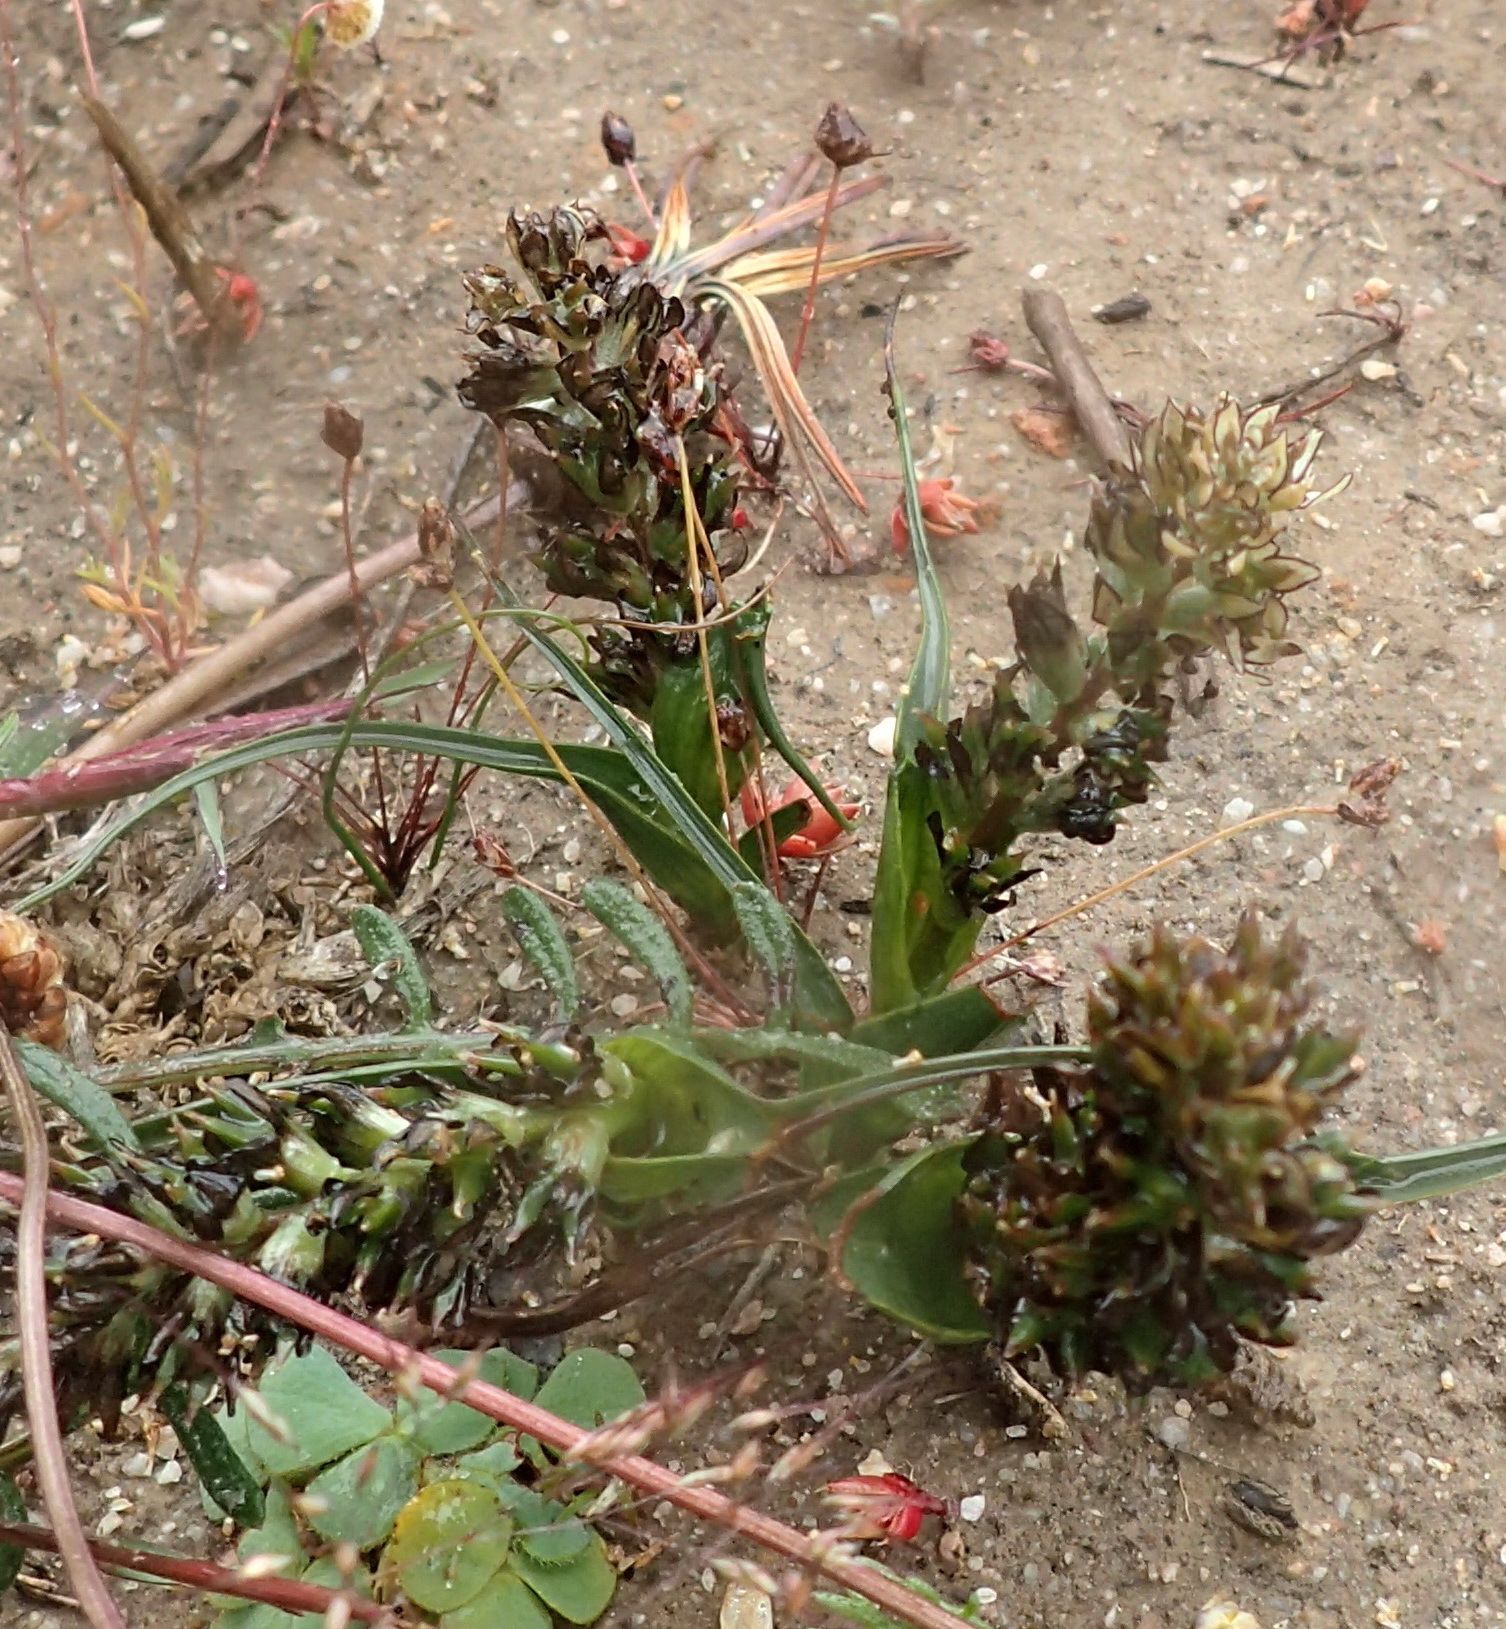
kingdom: Plantae
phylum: Tracheophyta
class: Liliopsida
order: Liliales
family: Colchicaceae
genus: Wurmbea
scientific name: Wurmbea spicata
